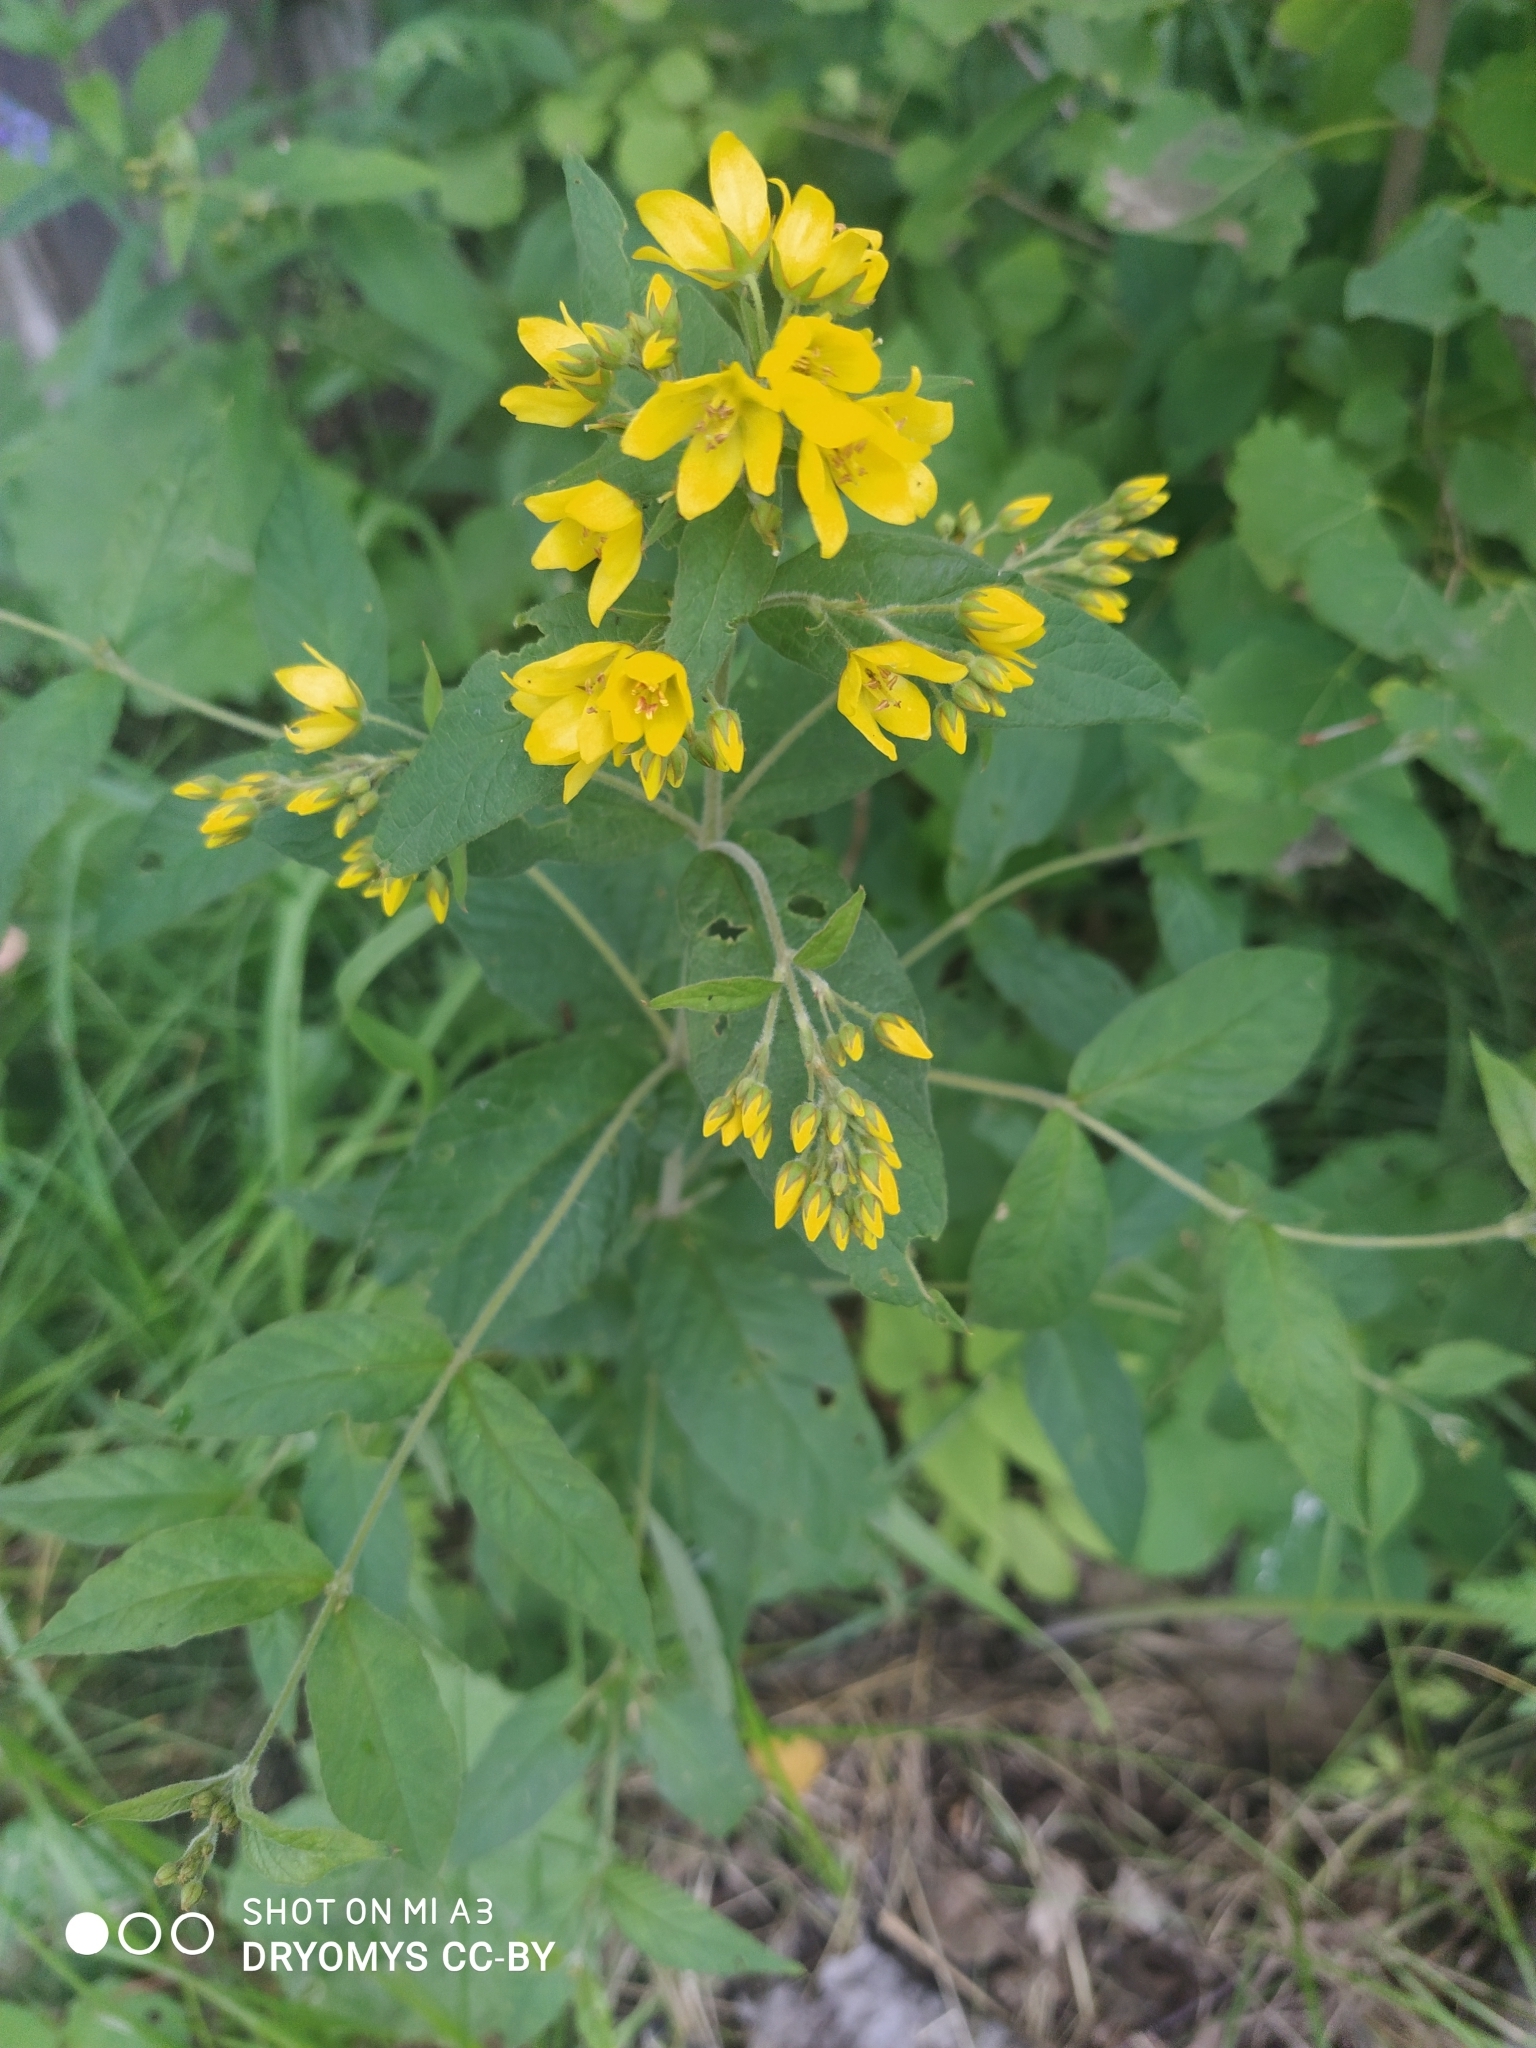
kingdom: Plantae
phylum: Tracheophyta
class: Magnoliopsida
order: Ericales
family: Primulaceae
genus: Lysimachia
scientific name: Lysimachia vulgaris
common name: Yellow loosestrife
